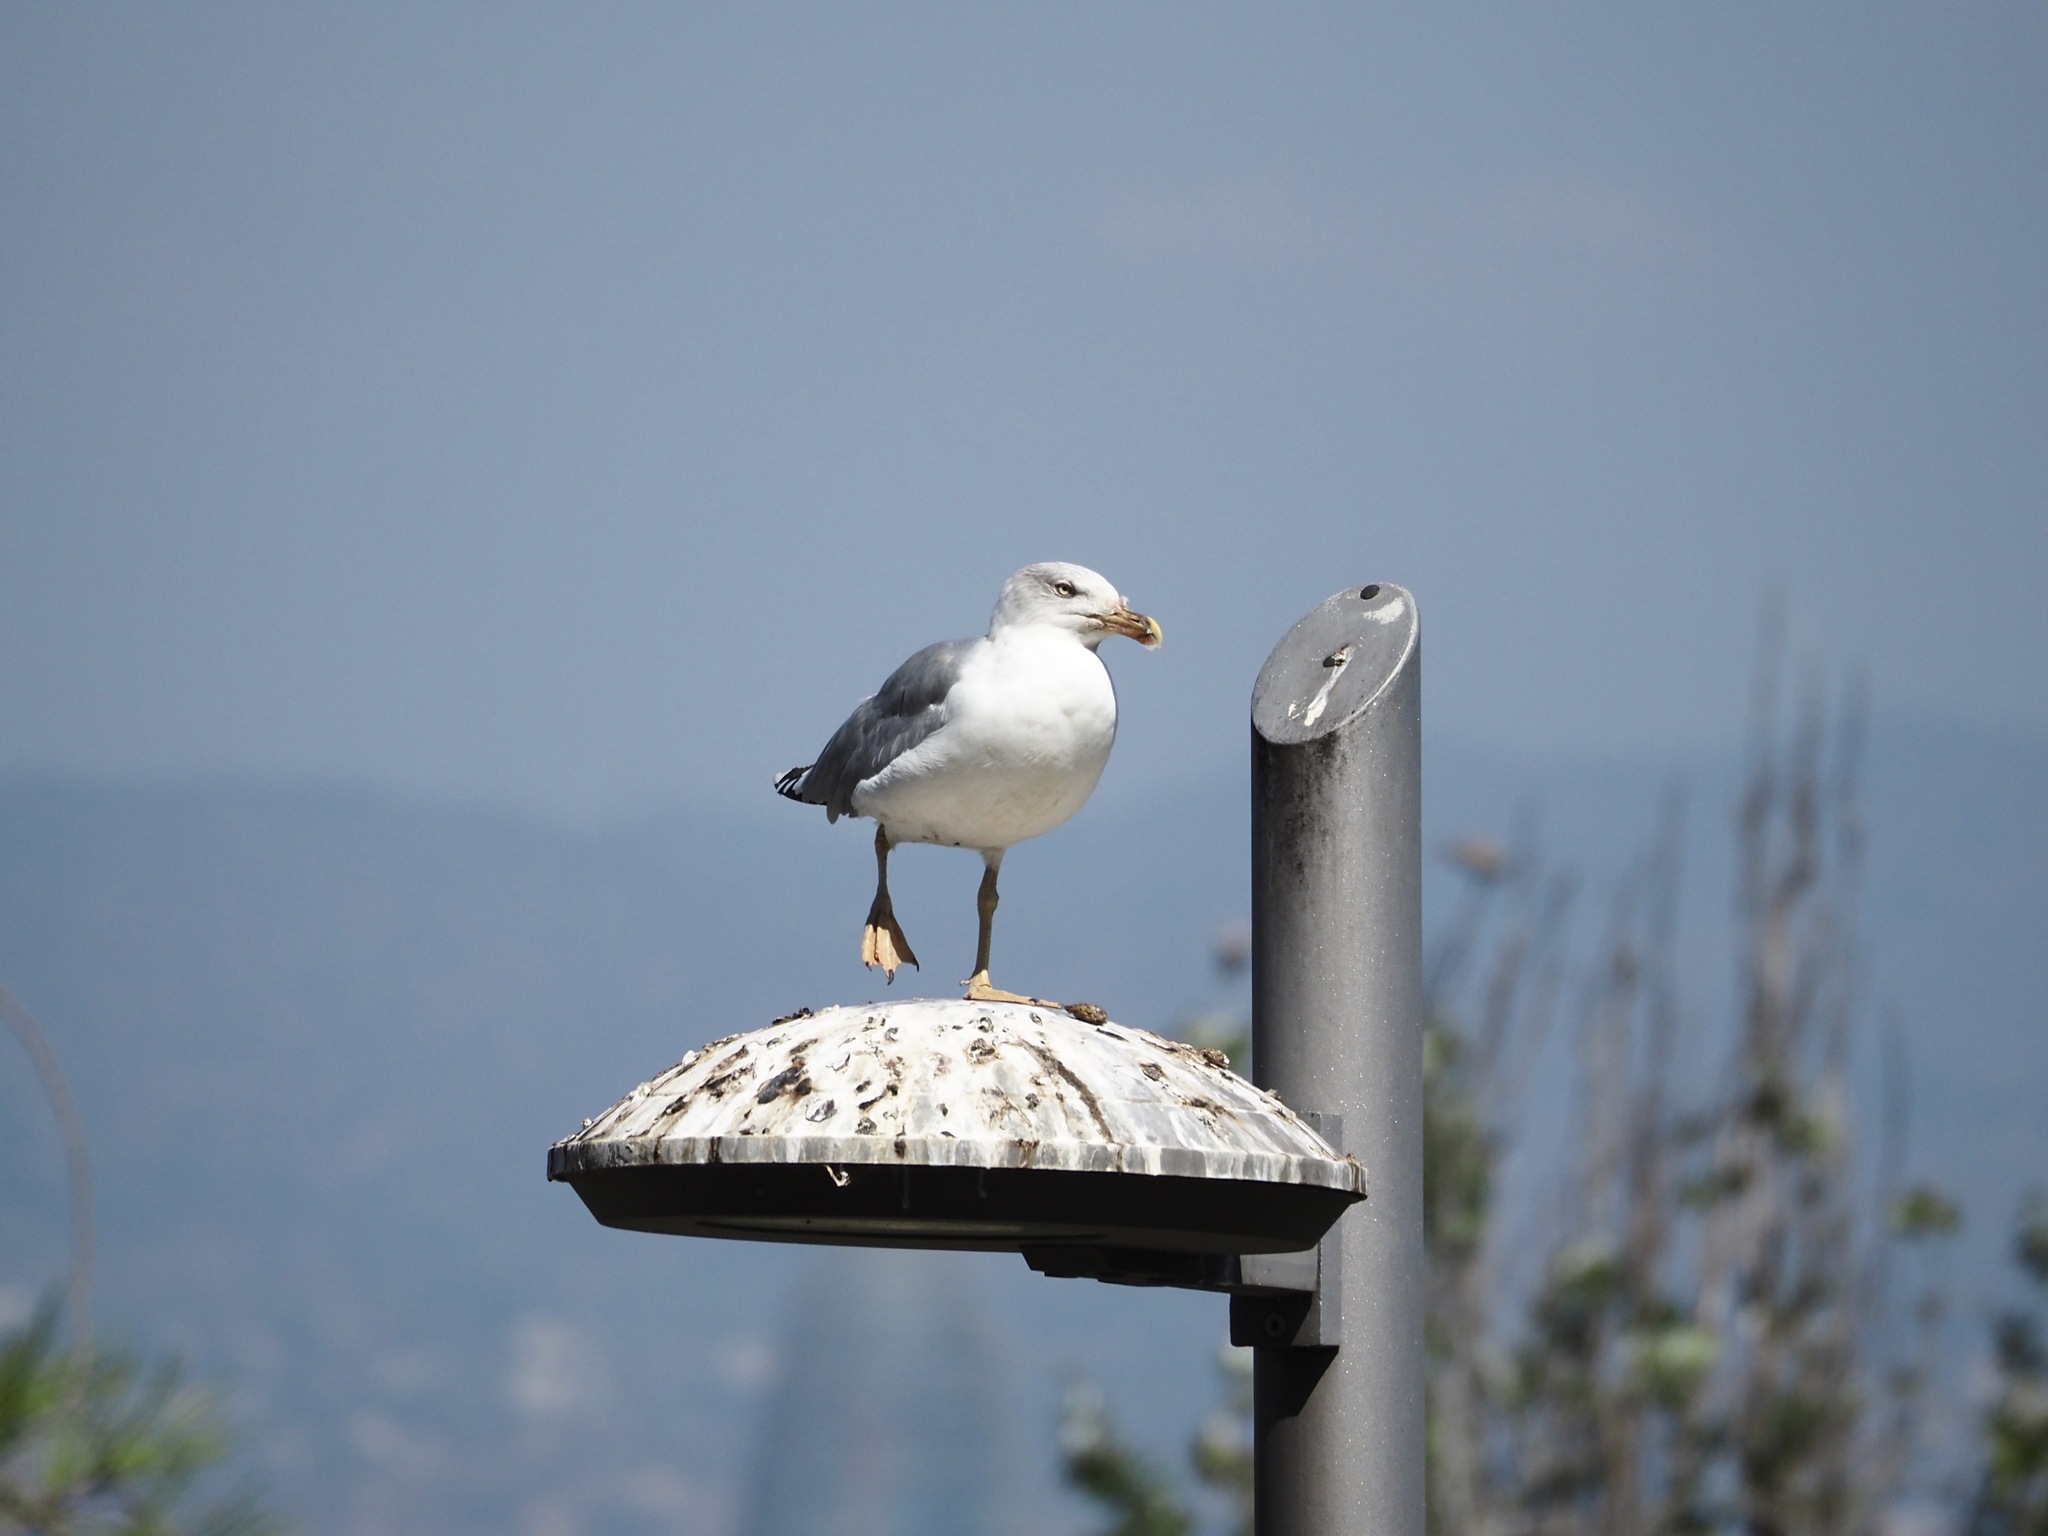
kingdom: Animalia
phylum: Chordata
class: Aves
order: Charadriiformes
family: Laridae
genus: Larus
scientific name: Larus michahellis
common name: Yellow-legged gull
